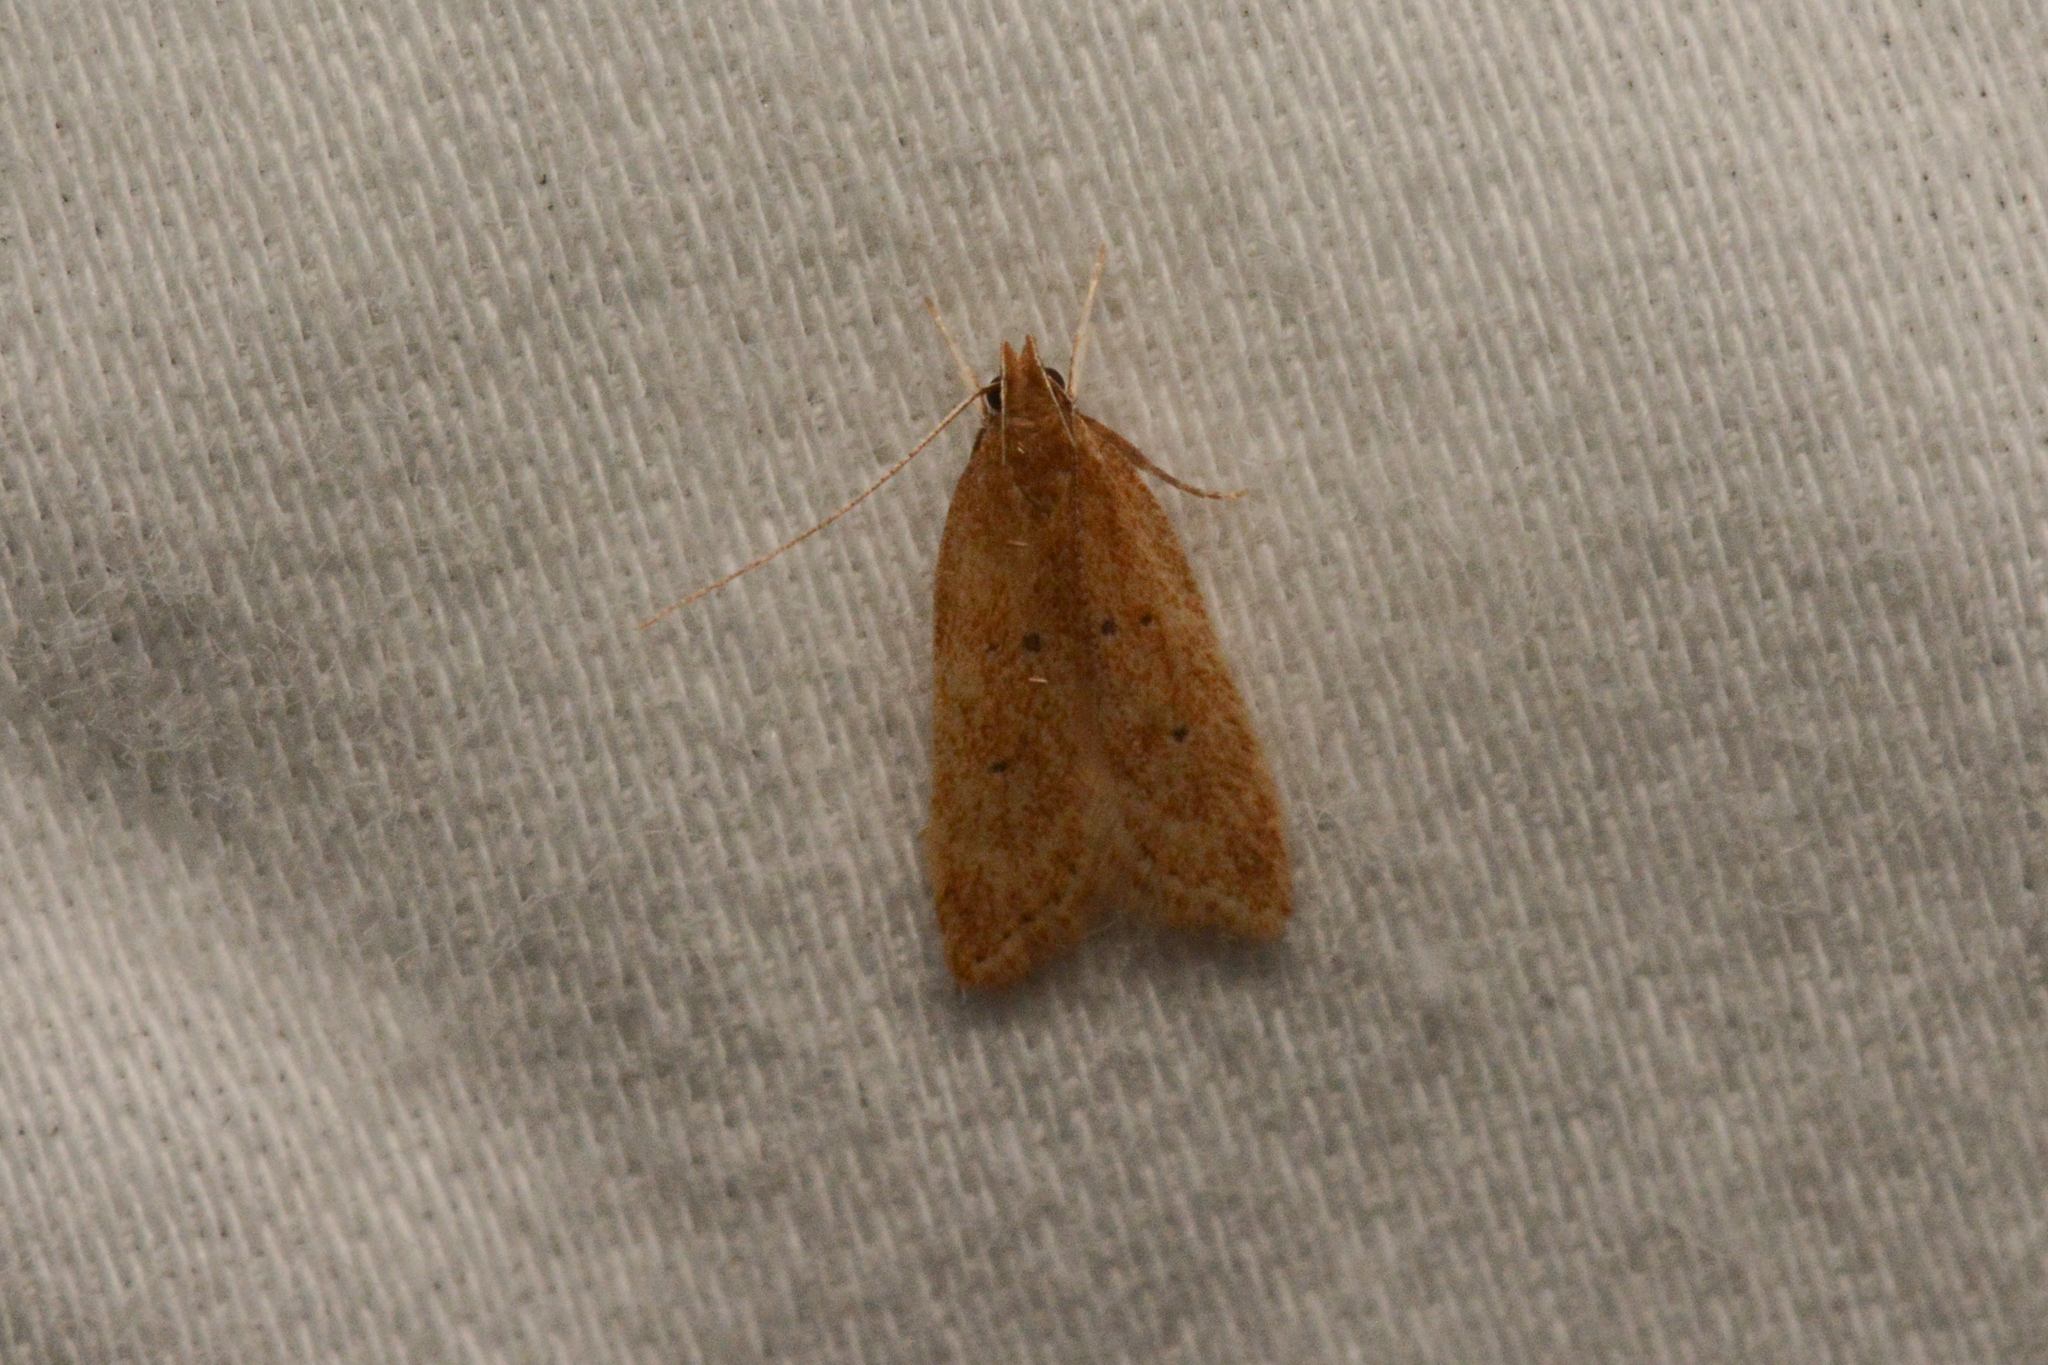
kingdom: Animalia
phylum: Arthropoda
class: Insecta
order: Lepidoptera
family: Gelechiidae
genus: Helcystogramma
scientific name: Helcystogramma badia
